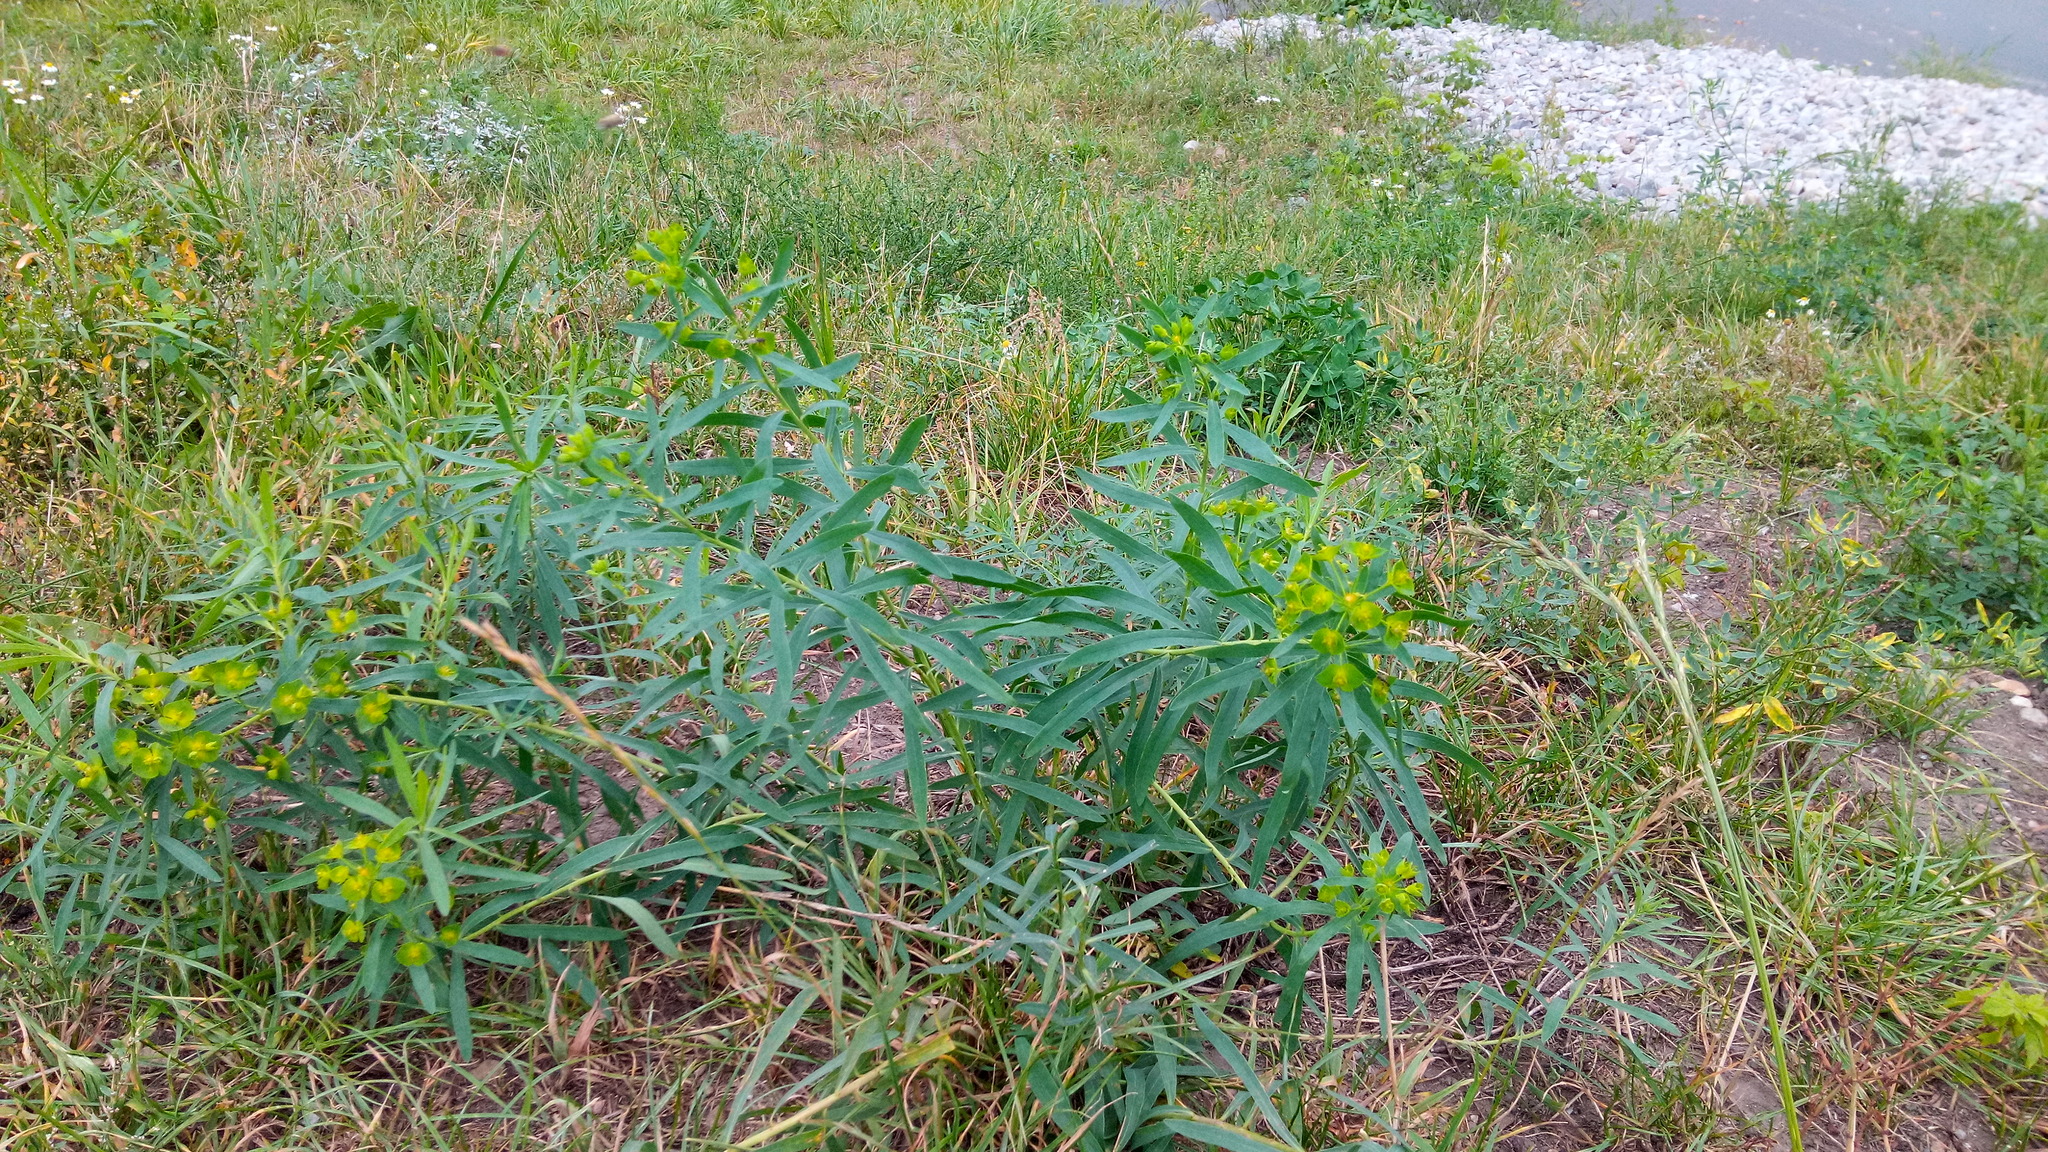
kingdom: Plantae
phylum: Tracheophyta
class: Magnoliopsida
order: Malpighiales
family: Euphorbiaceae
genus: Euphorbia
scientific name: Euphorbia virgata
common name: Leafy spurge
